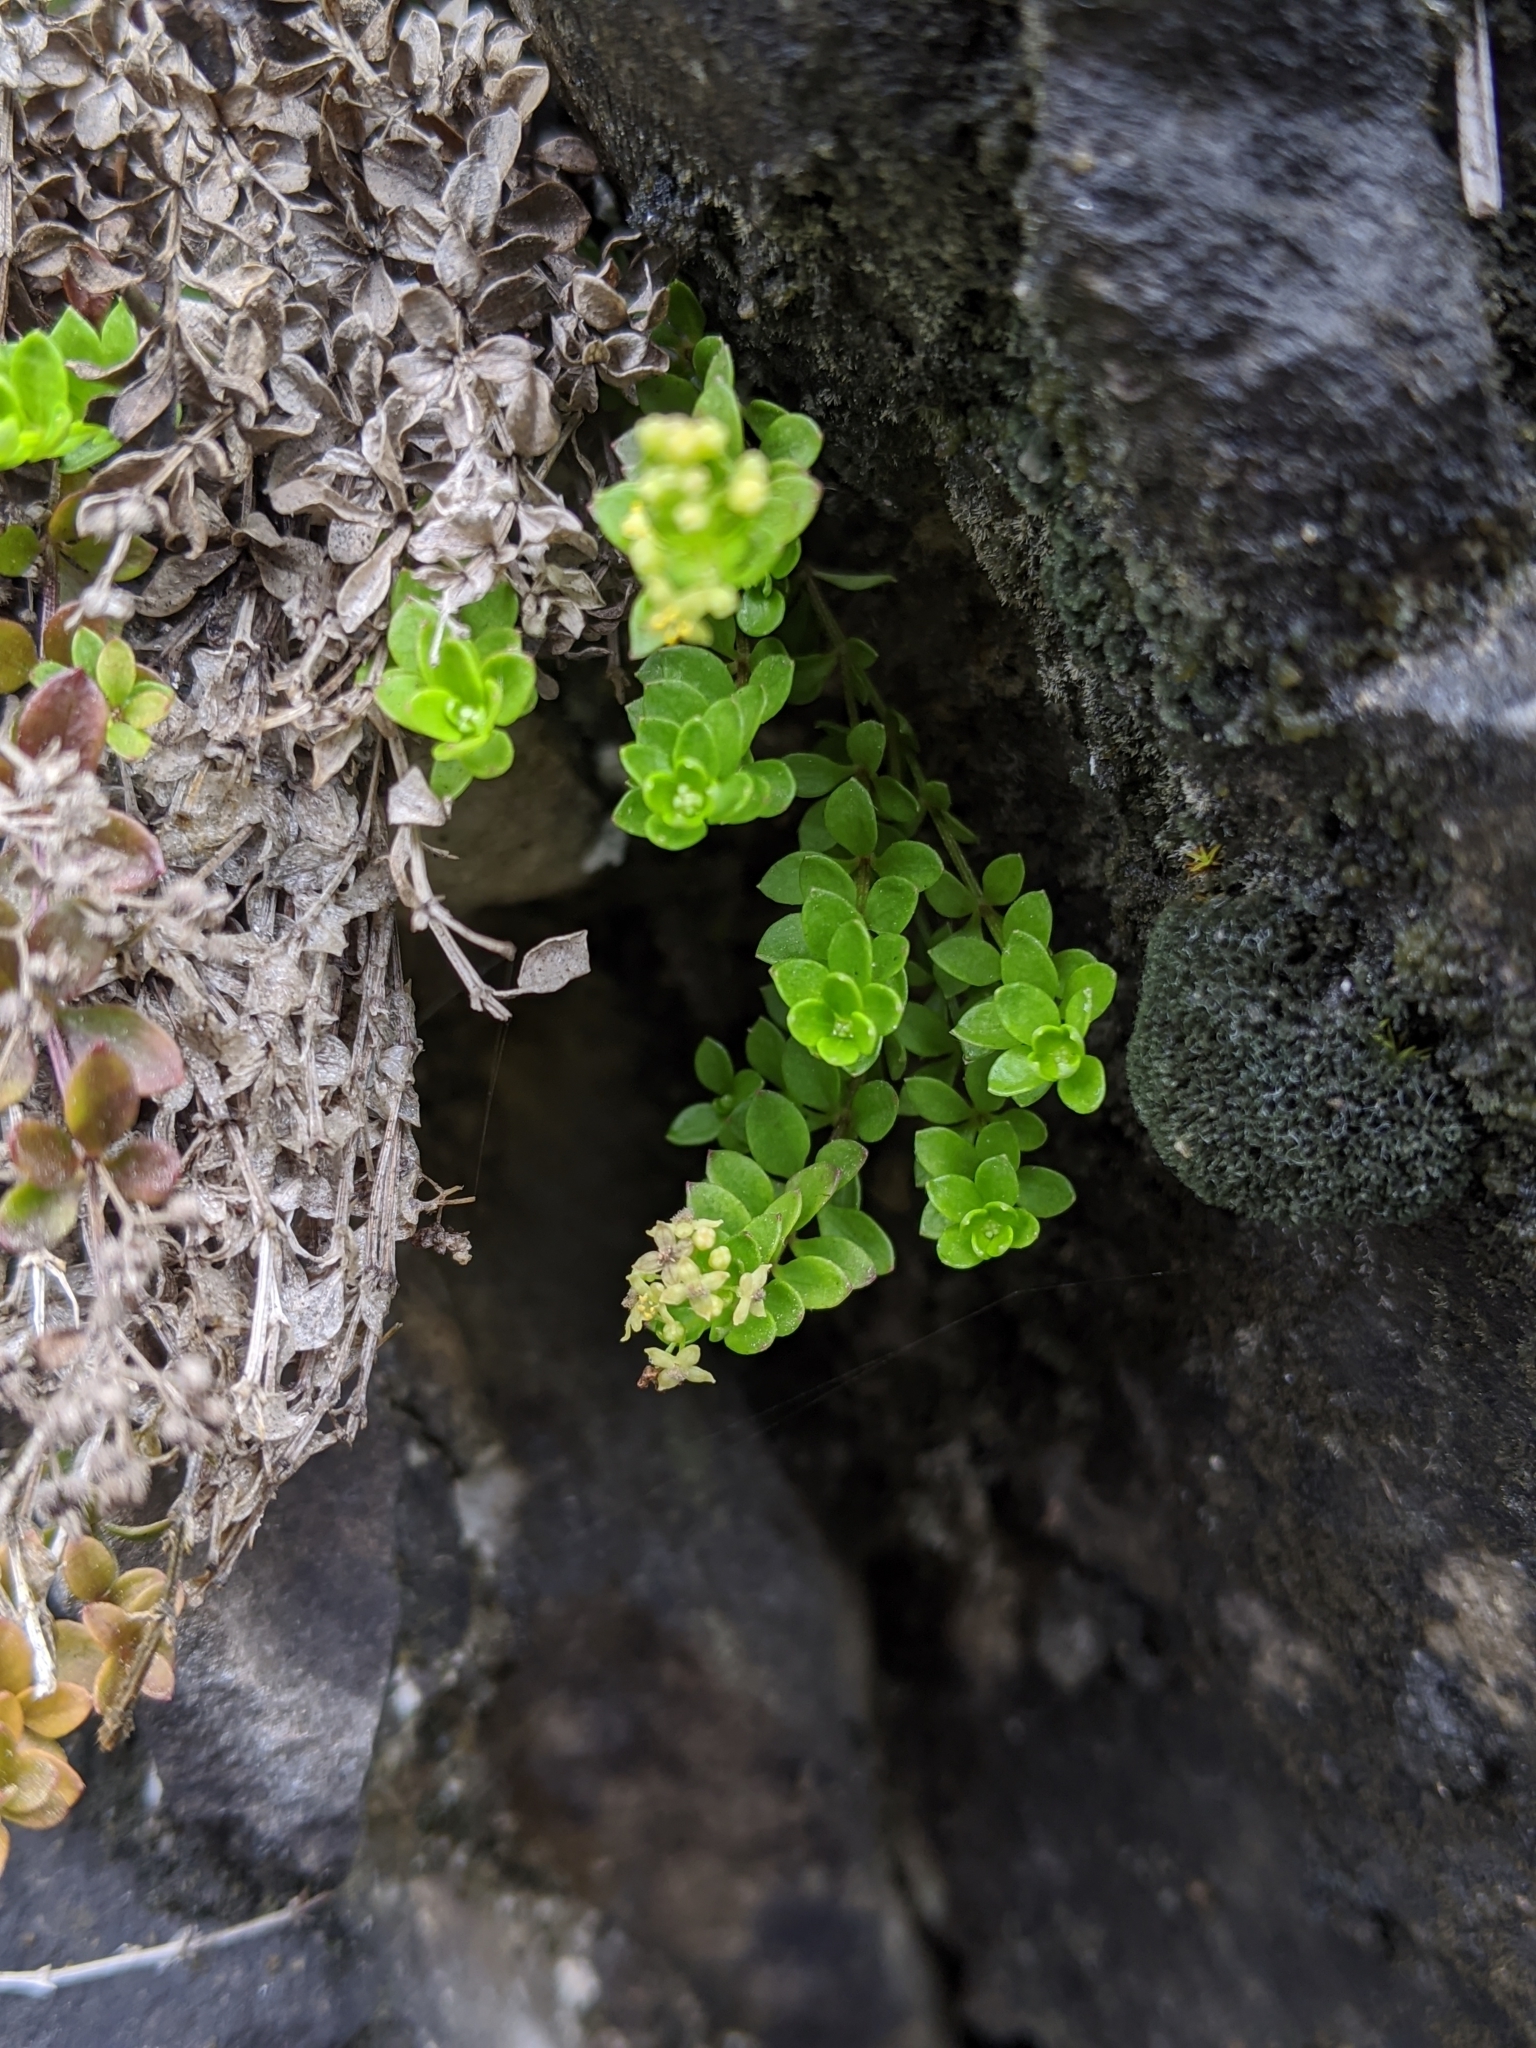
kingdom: Plantae
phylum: Tracheophyta
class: Magnoliopsida
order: Gentianales
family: Rubiaceae
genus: Galium
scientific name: Galium tarokoense
